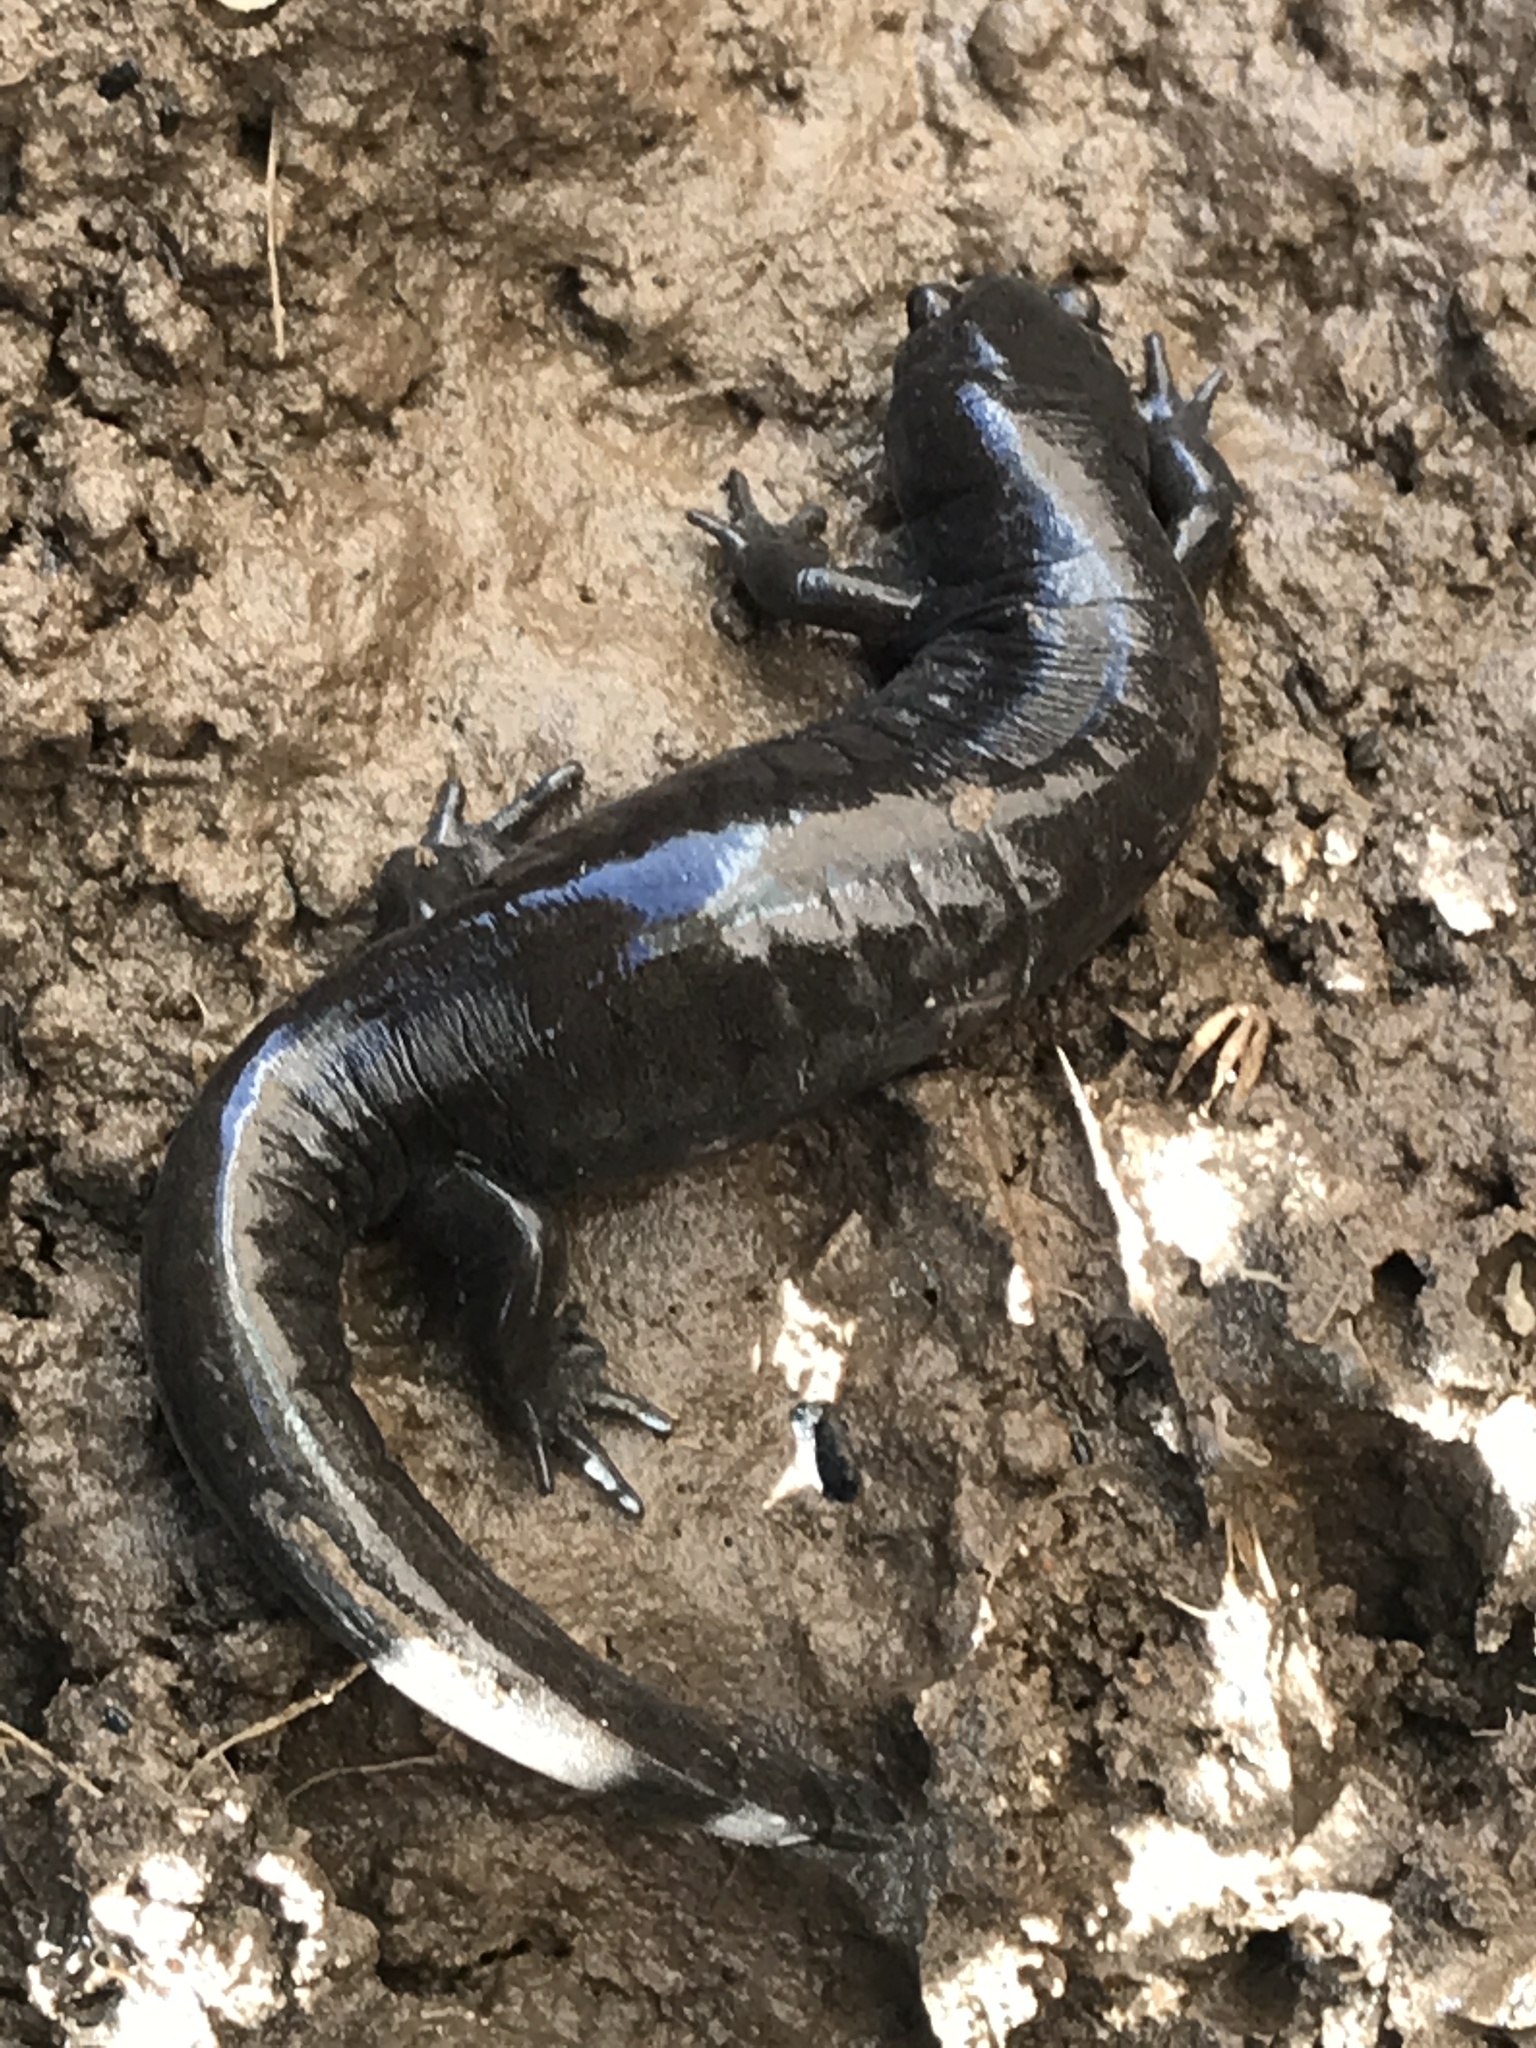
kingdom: Animalia
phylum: Chordata
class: Amphibia
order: Caudata
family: Ambystomatidae
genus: Ambystoma
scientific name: Ambystoma texanum
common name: Small-mouth salamander
